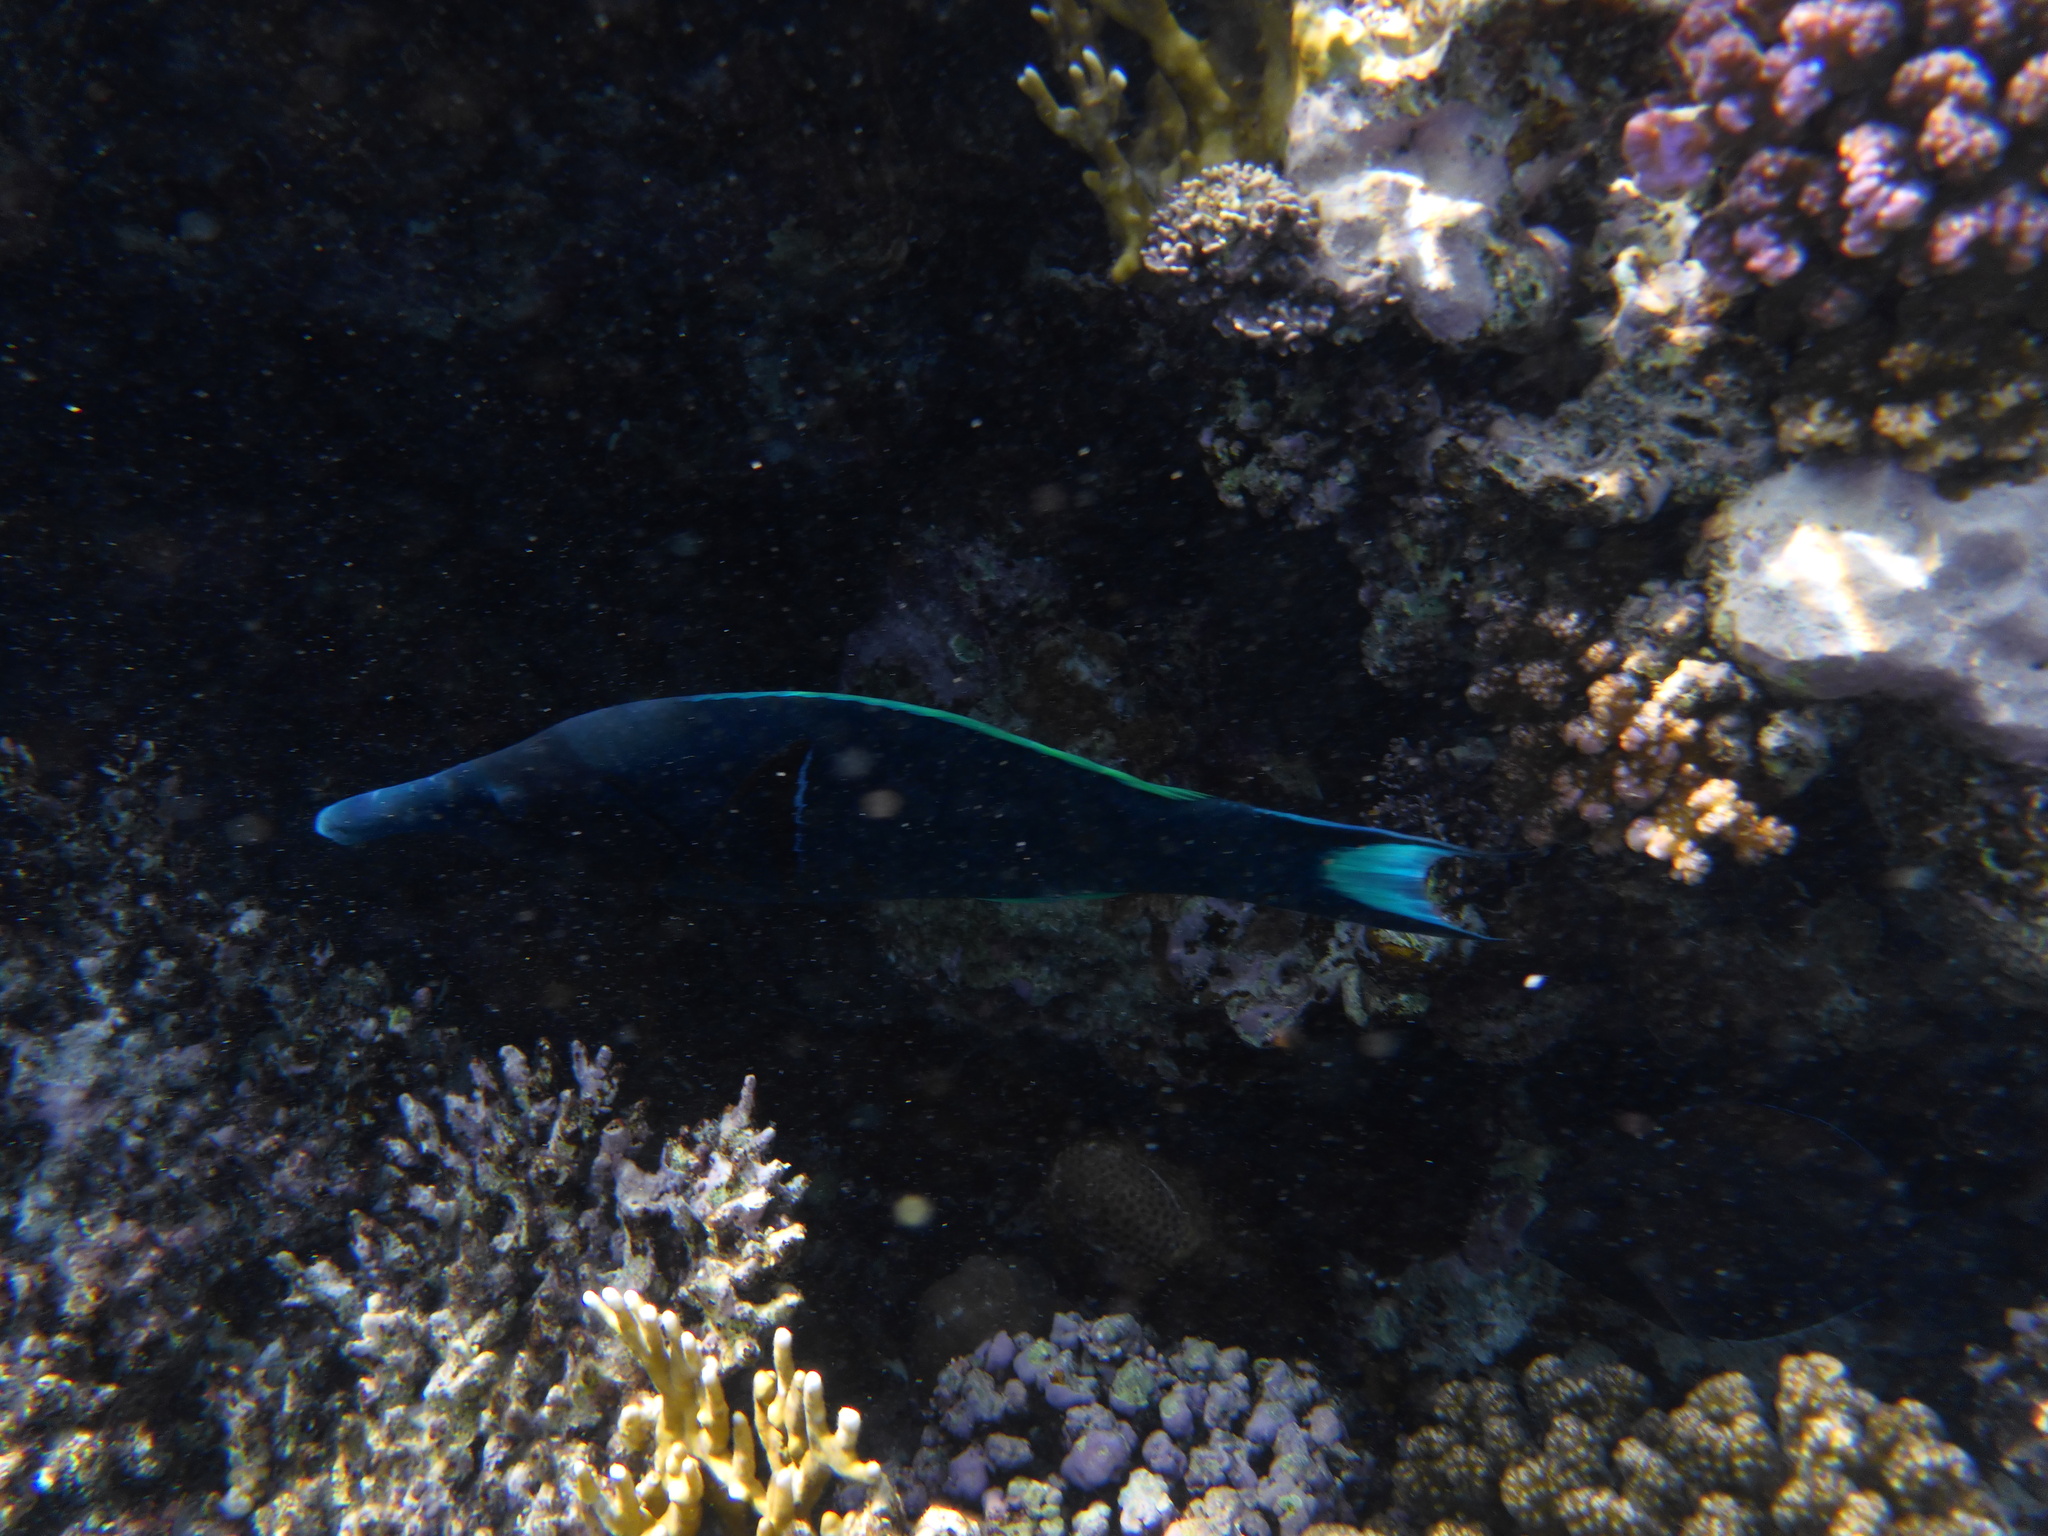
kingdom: Animalia
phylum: Chordata
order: Perciformes
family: Labridae
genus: Gomphosus
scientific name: Gomphosus klunzingeri
